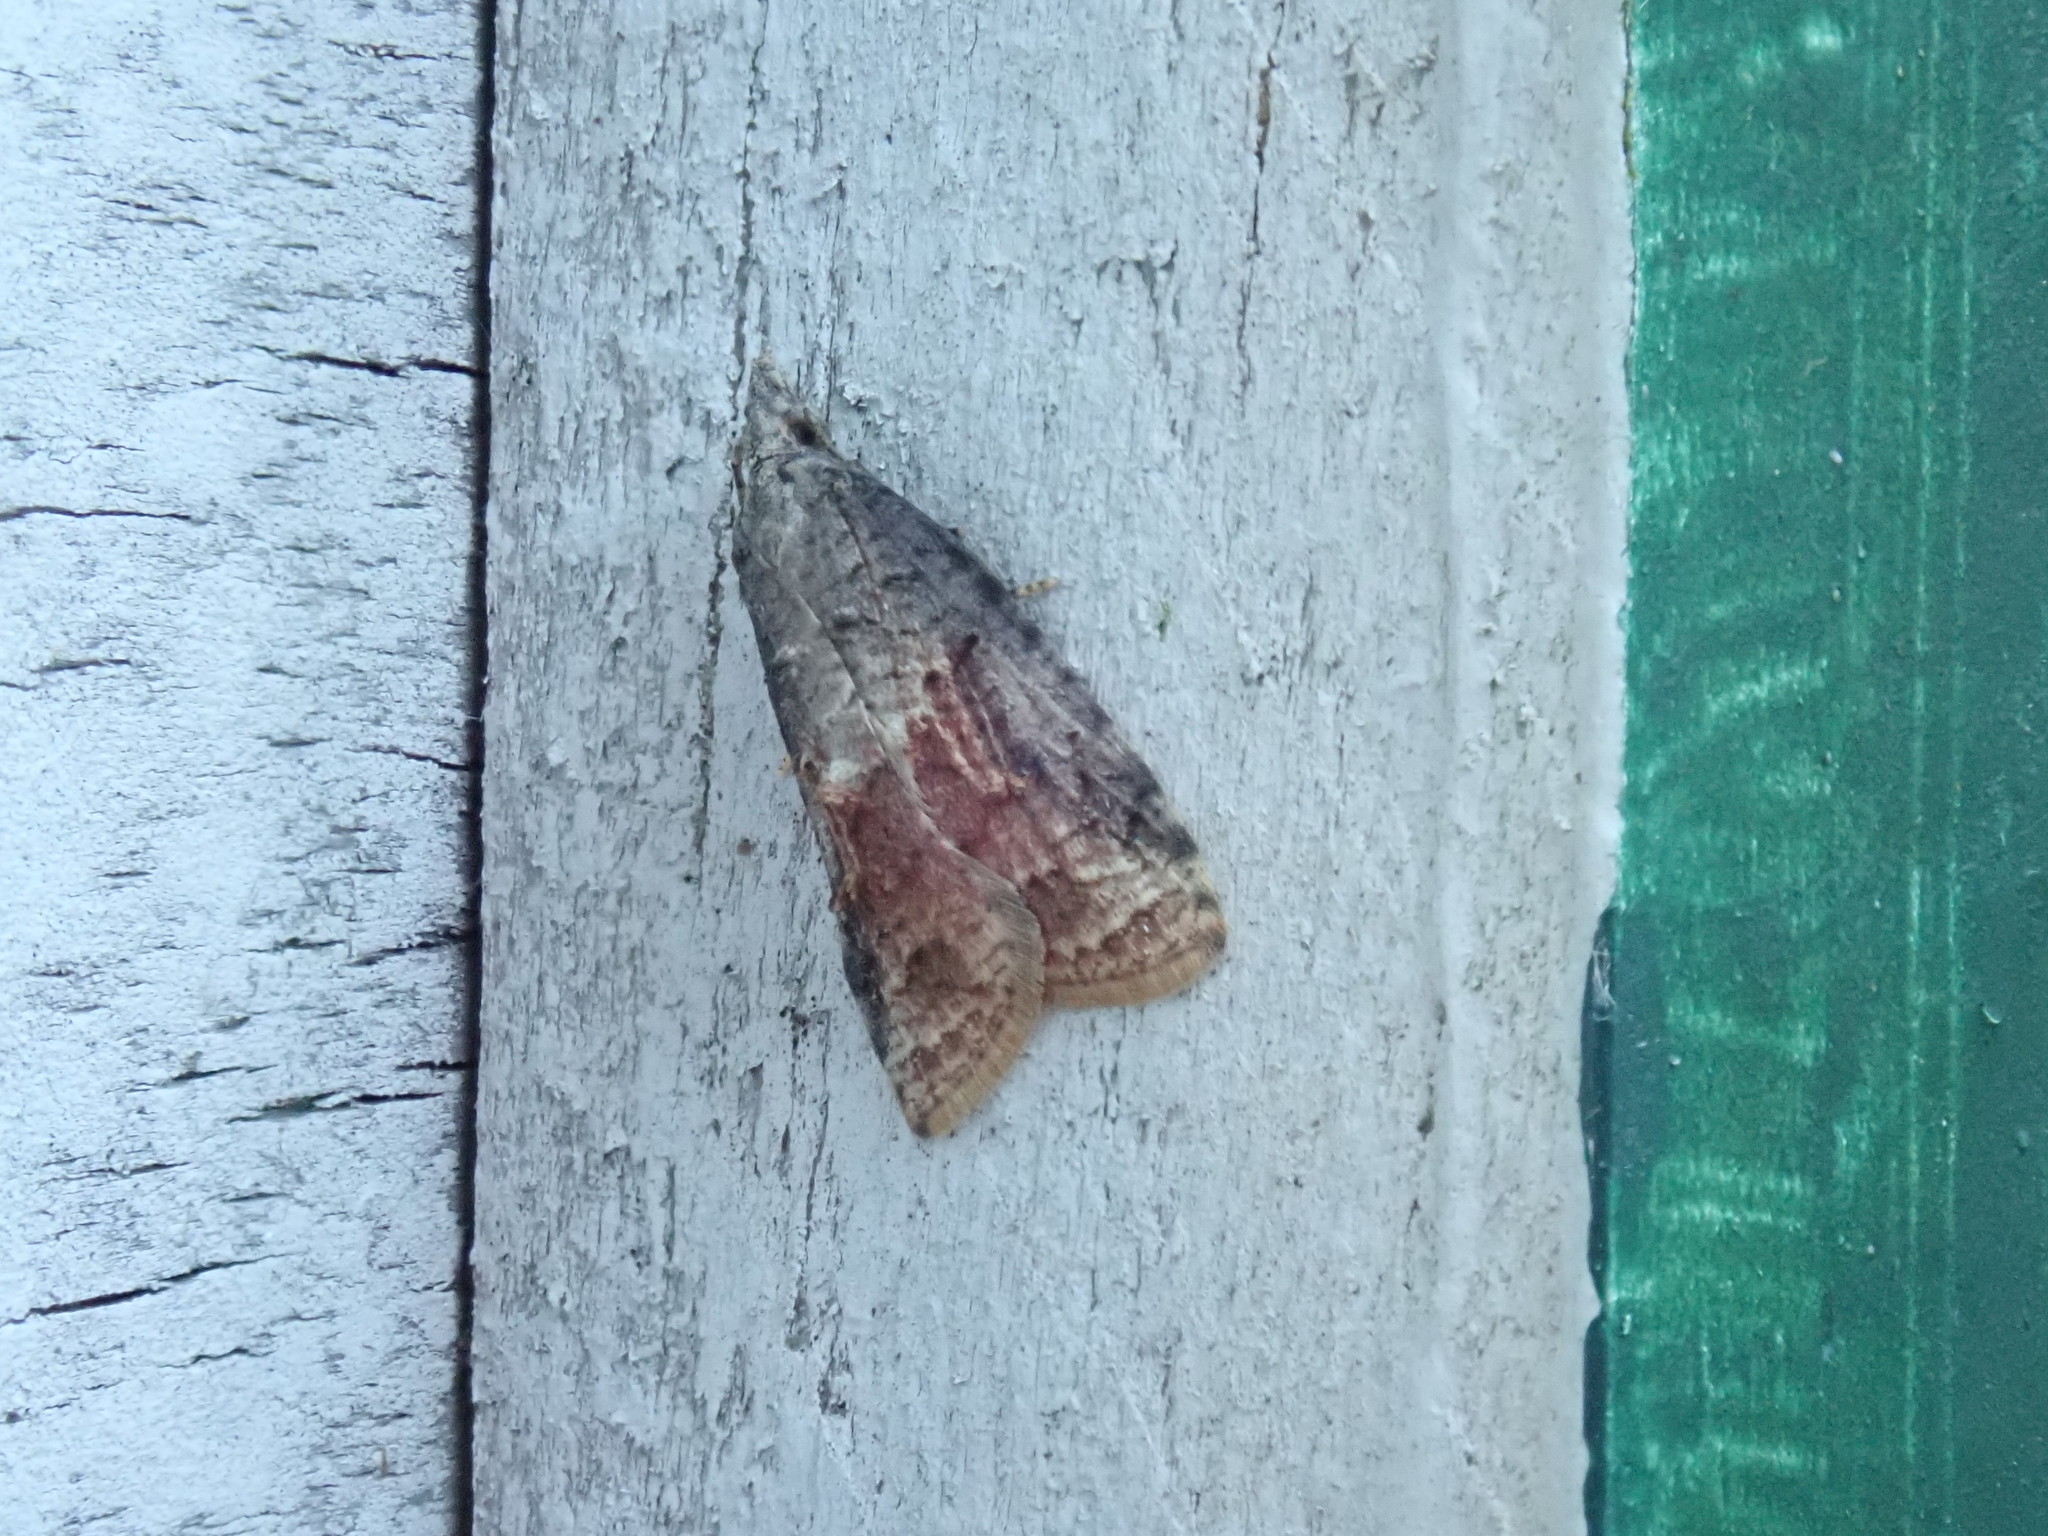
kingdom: Animalia
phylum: Arthropoda
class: Insecta
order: Lepidoptera
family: Tortricidae
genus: Platynota
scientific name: Platynota idaeusalis
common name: Tufted apple bud moth
